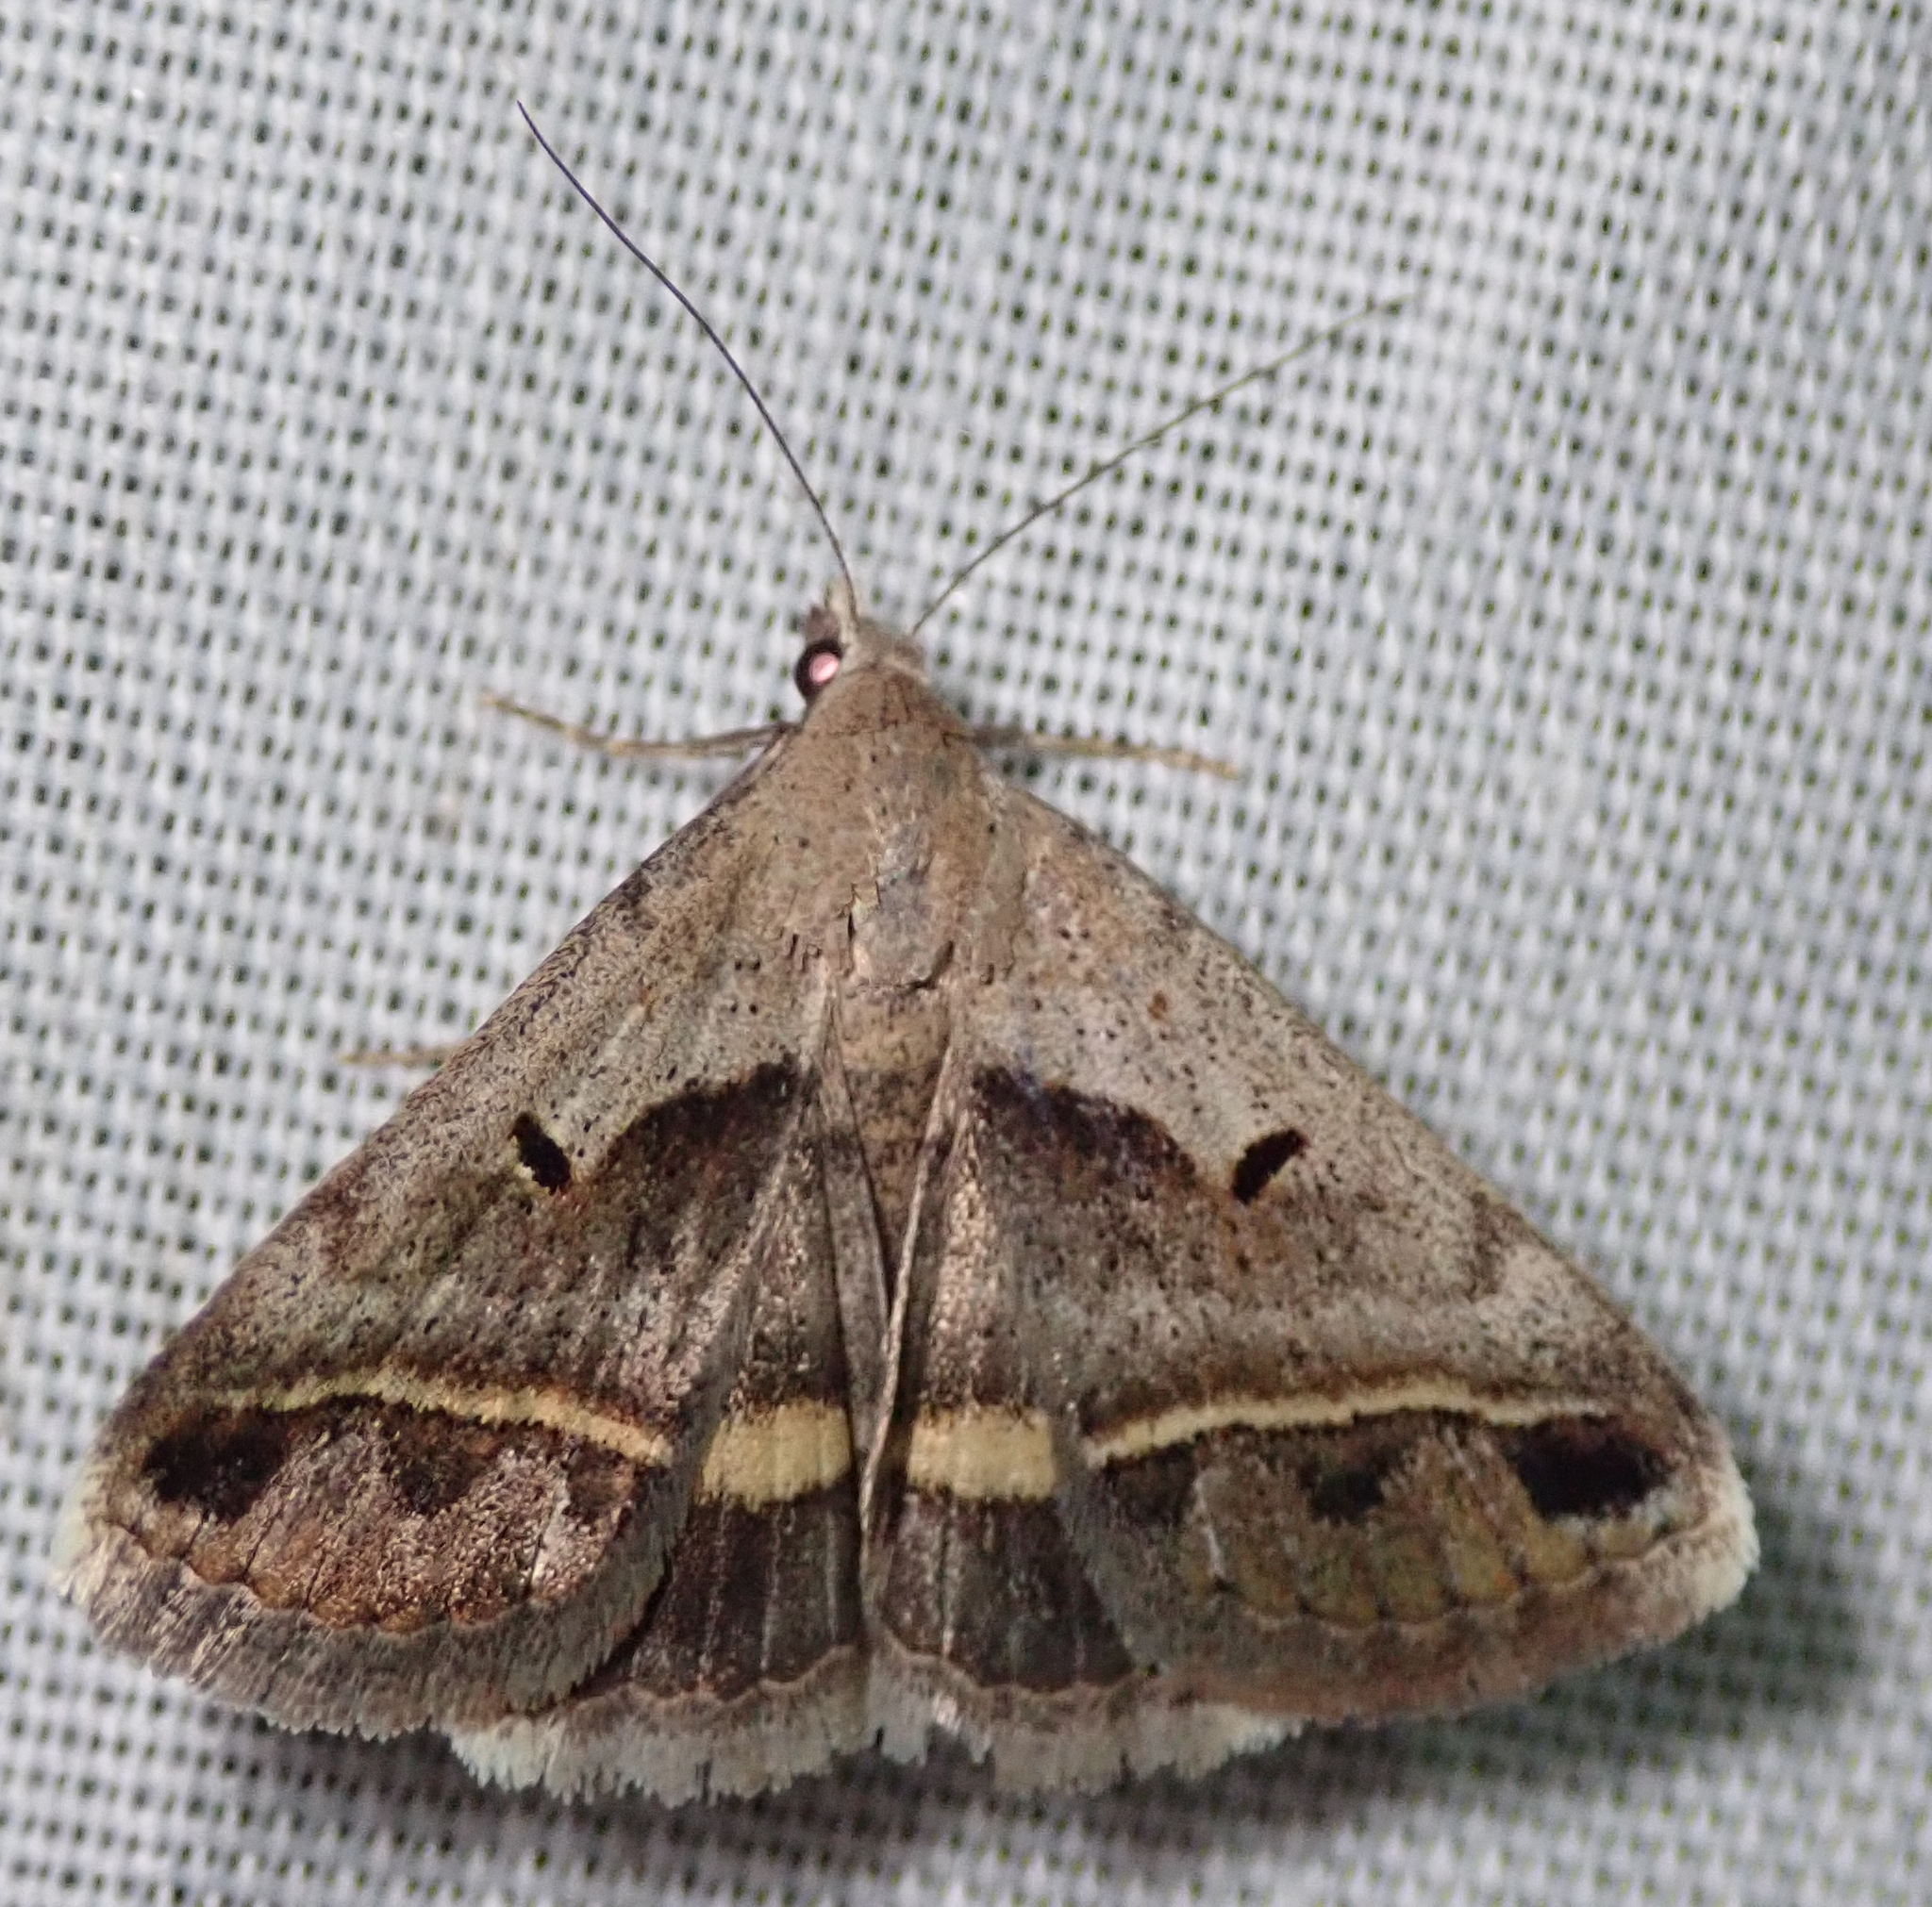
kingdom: Animalia
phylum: Arthropoda
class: Insecta
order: Lepidoptera
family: Erebidae
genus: Acantholipes
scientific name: Acantholipes trimeni
